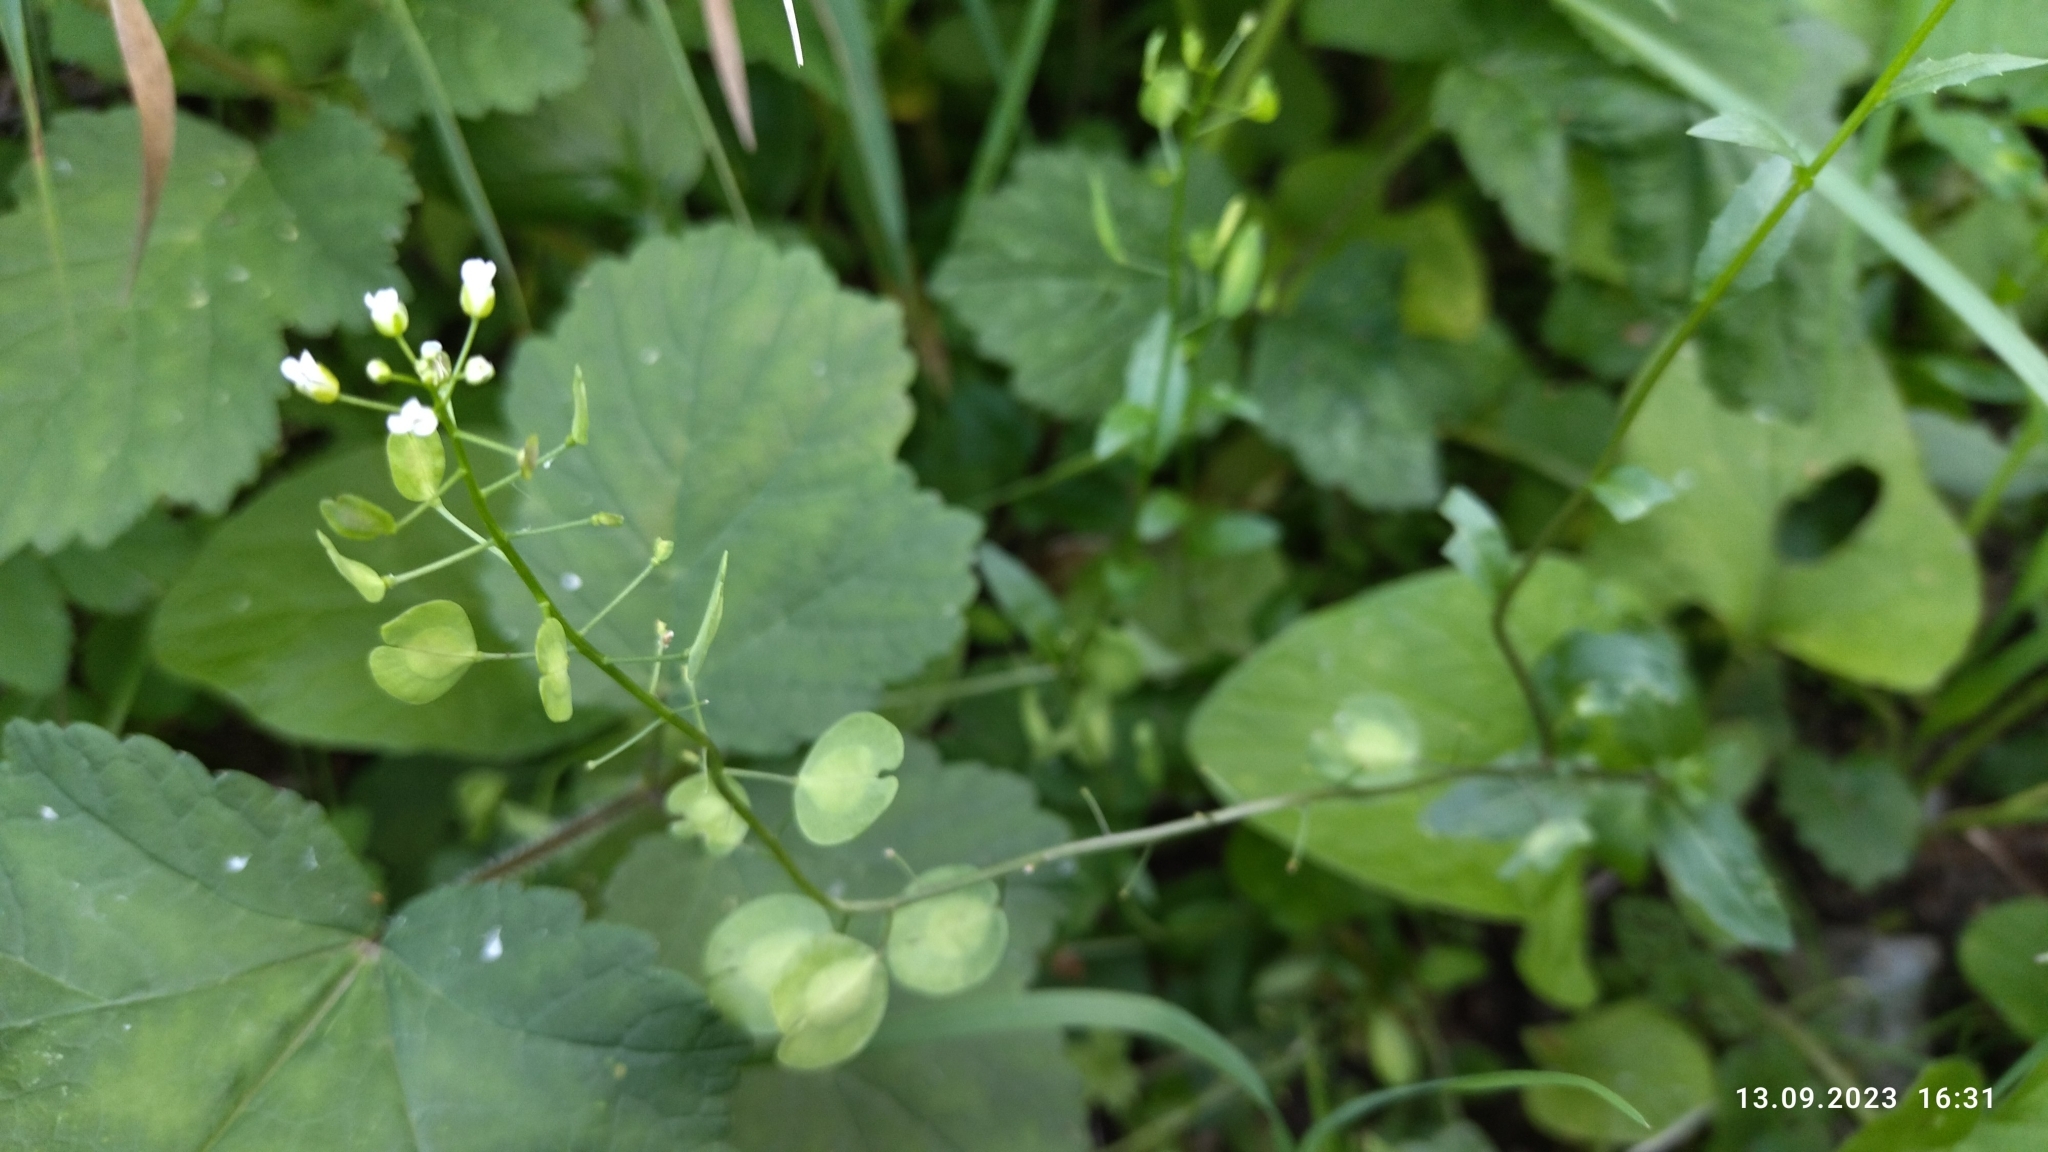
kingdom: Plantae
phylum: Tracheophyta
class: Magnoliopsida
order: Brassicales
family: Brassicaceae
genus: Thlaspi
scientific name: Thlaspi arvense
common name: Field pennycress
